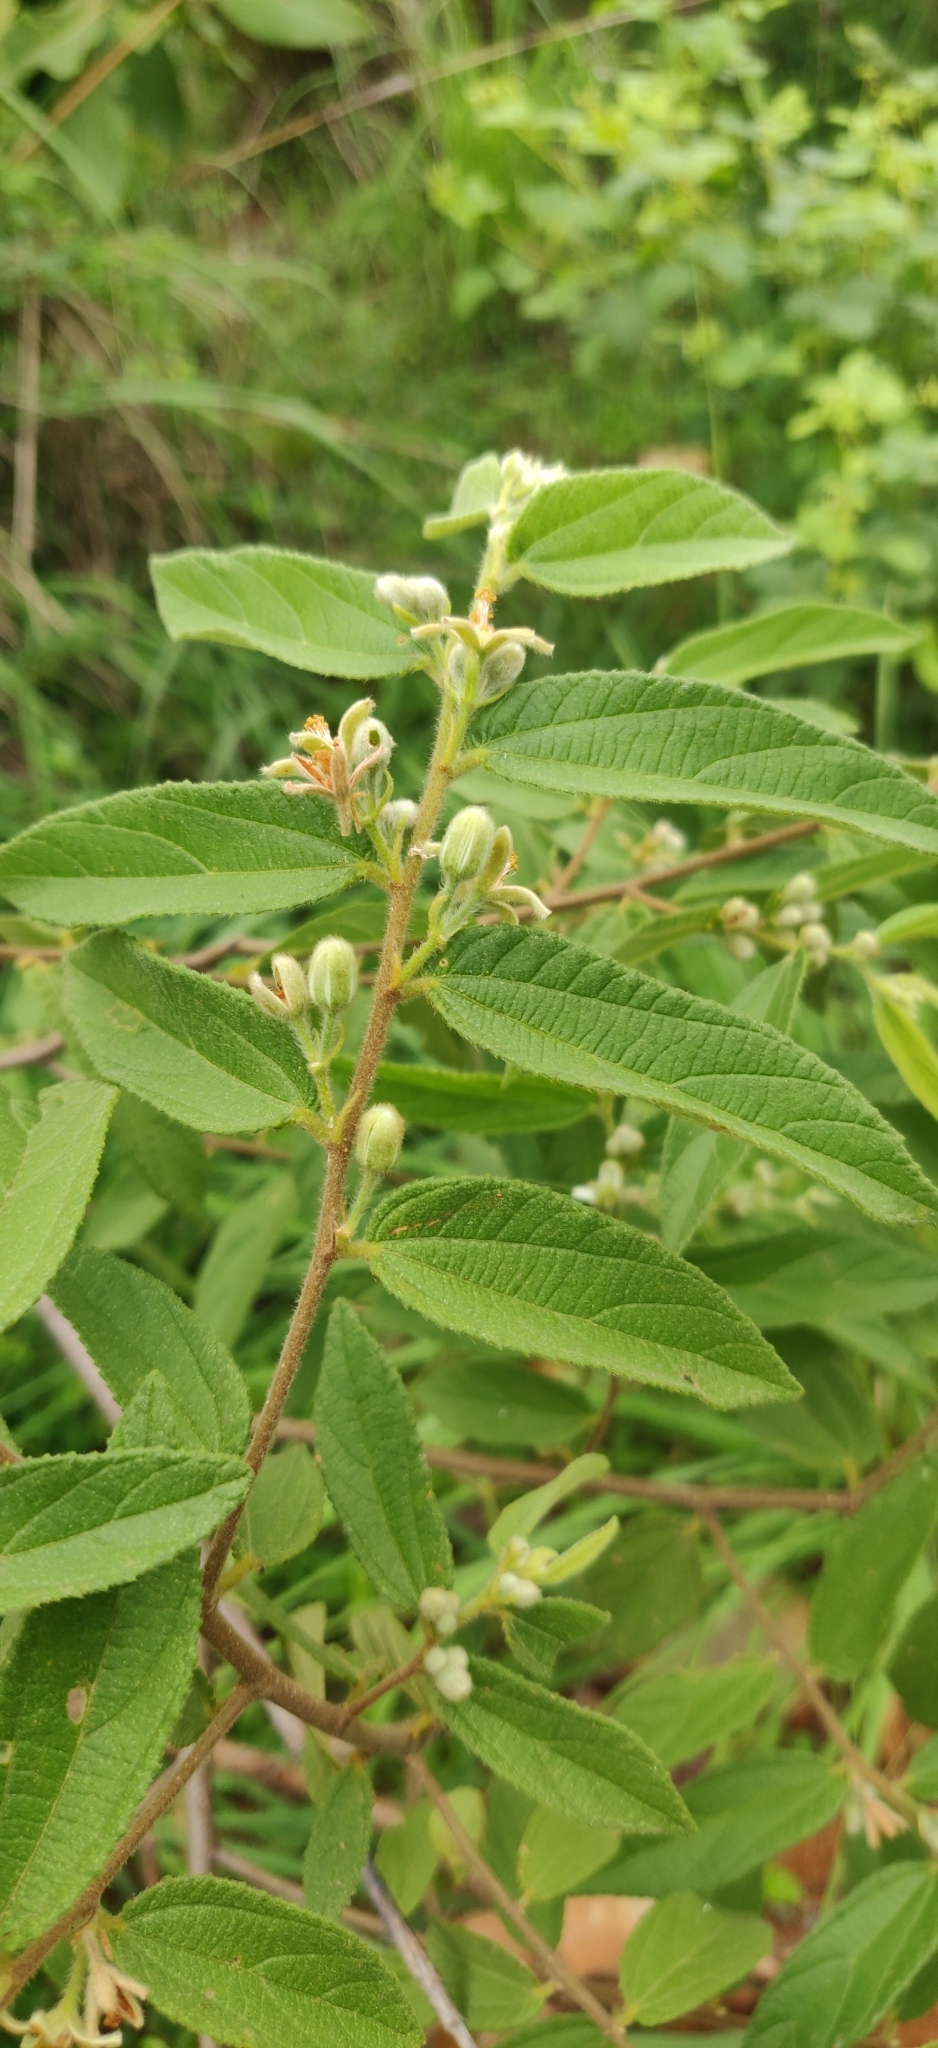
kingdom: Plantae
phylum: Tracheophyta
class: Magnoliopsida
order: Malvales
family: Malvaceae
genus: Grewia
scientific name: Grewia hirsuta
